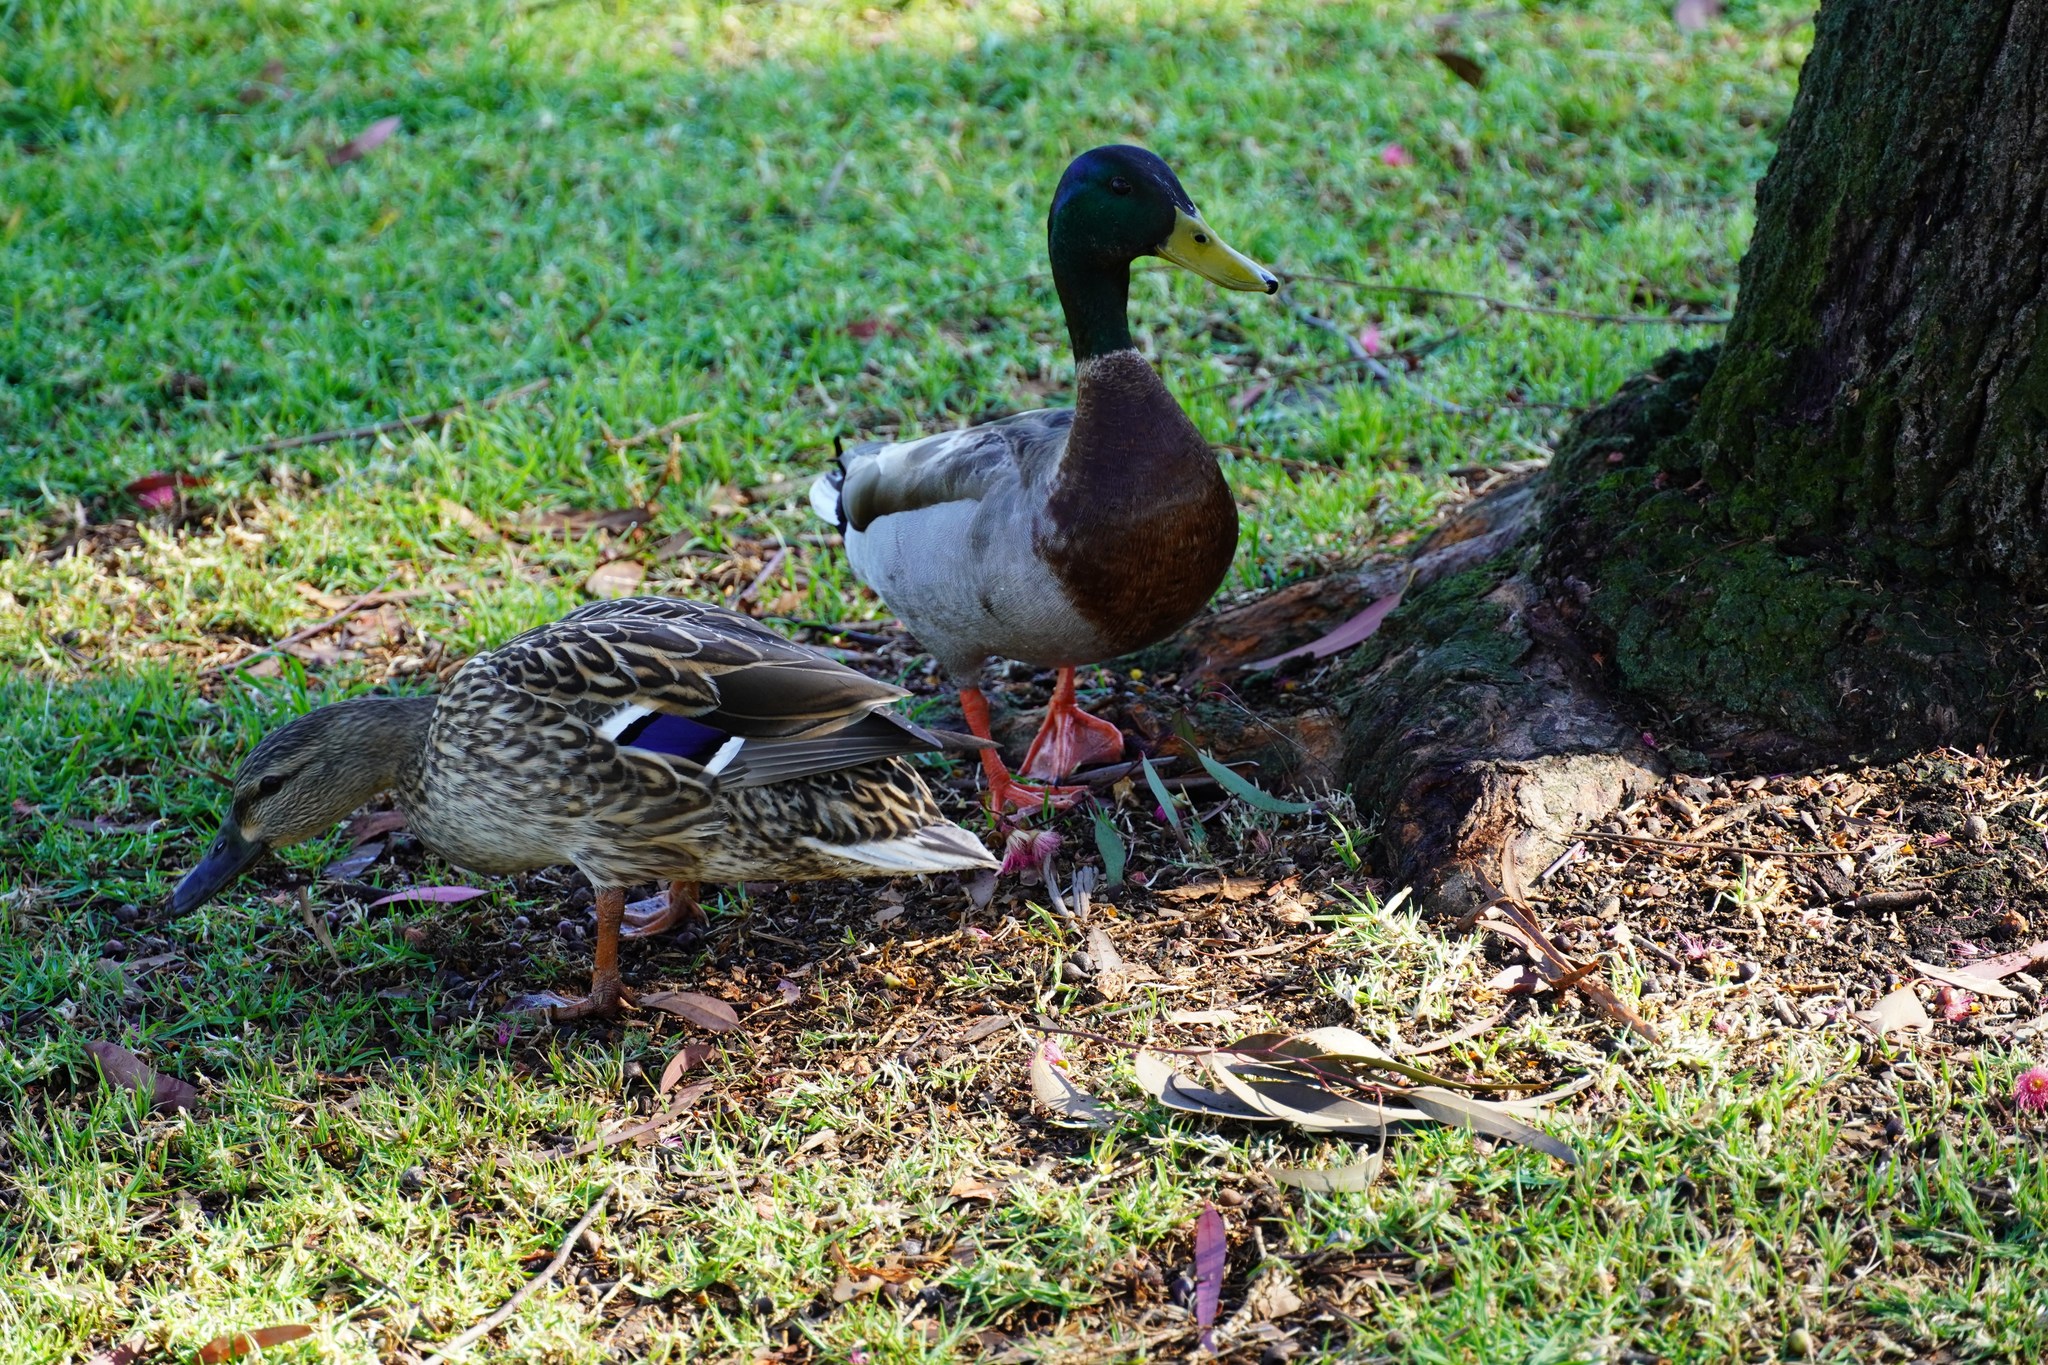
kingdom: Animalia
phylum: Chordata
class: Aves
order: Anseriformes
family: Anatidae
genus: Anas
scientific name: Anas platyrhynchos
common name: Mallard
